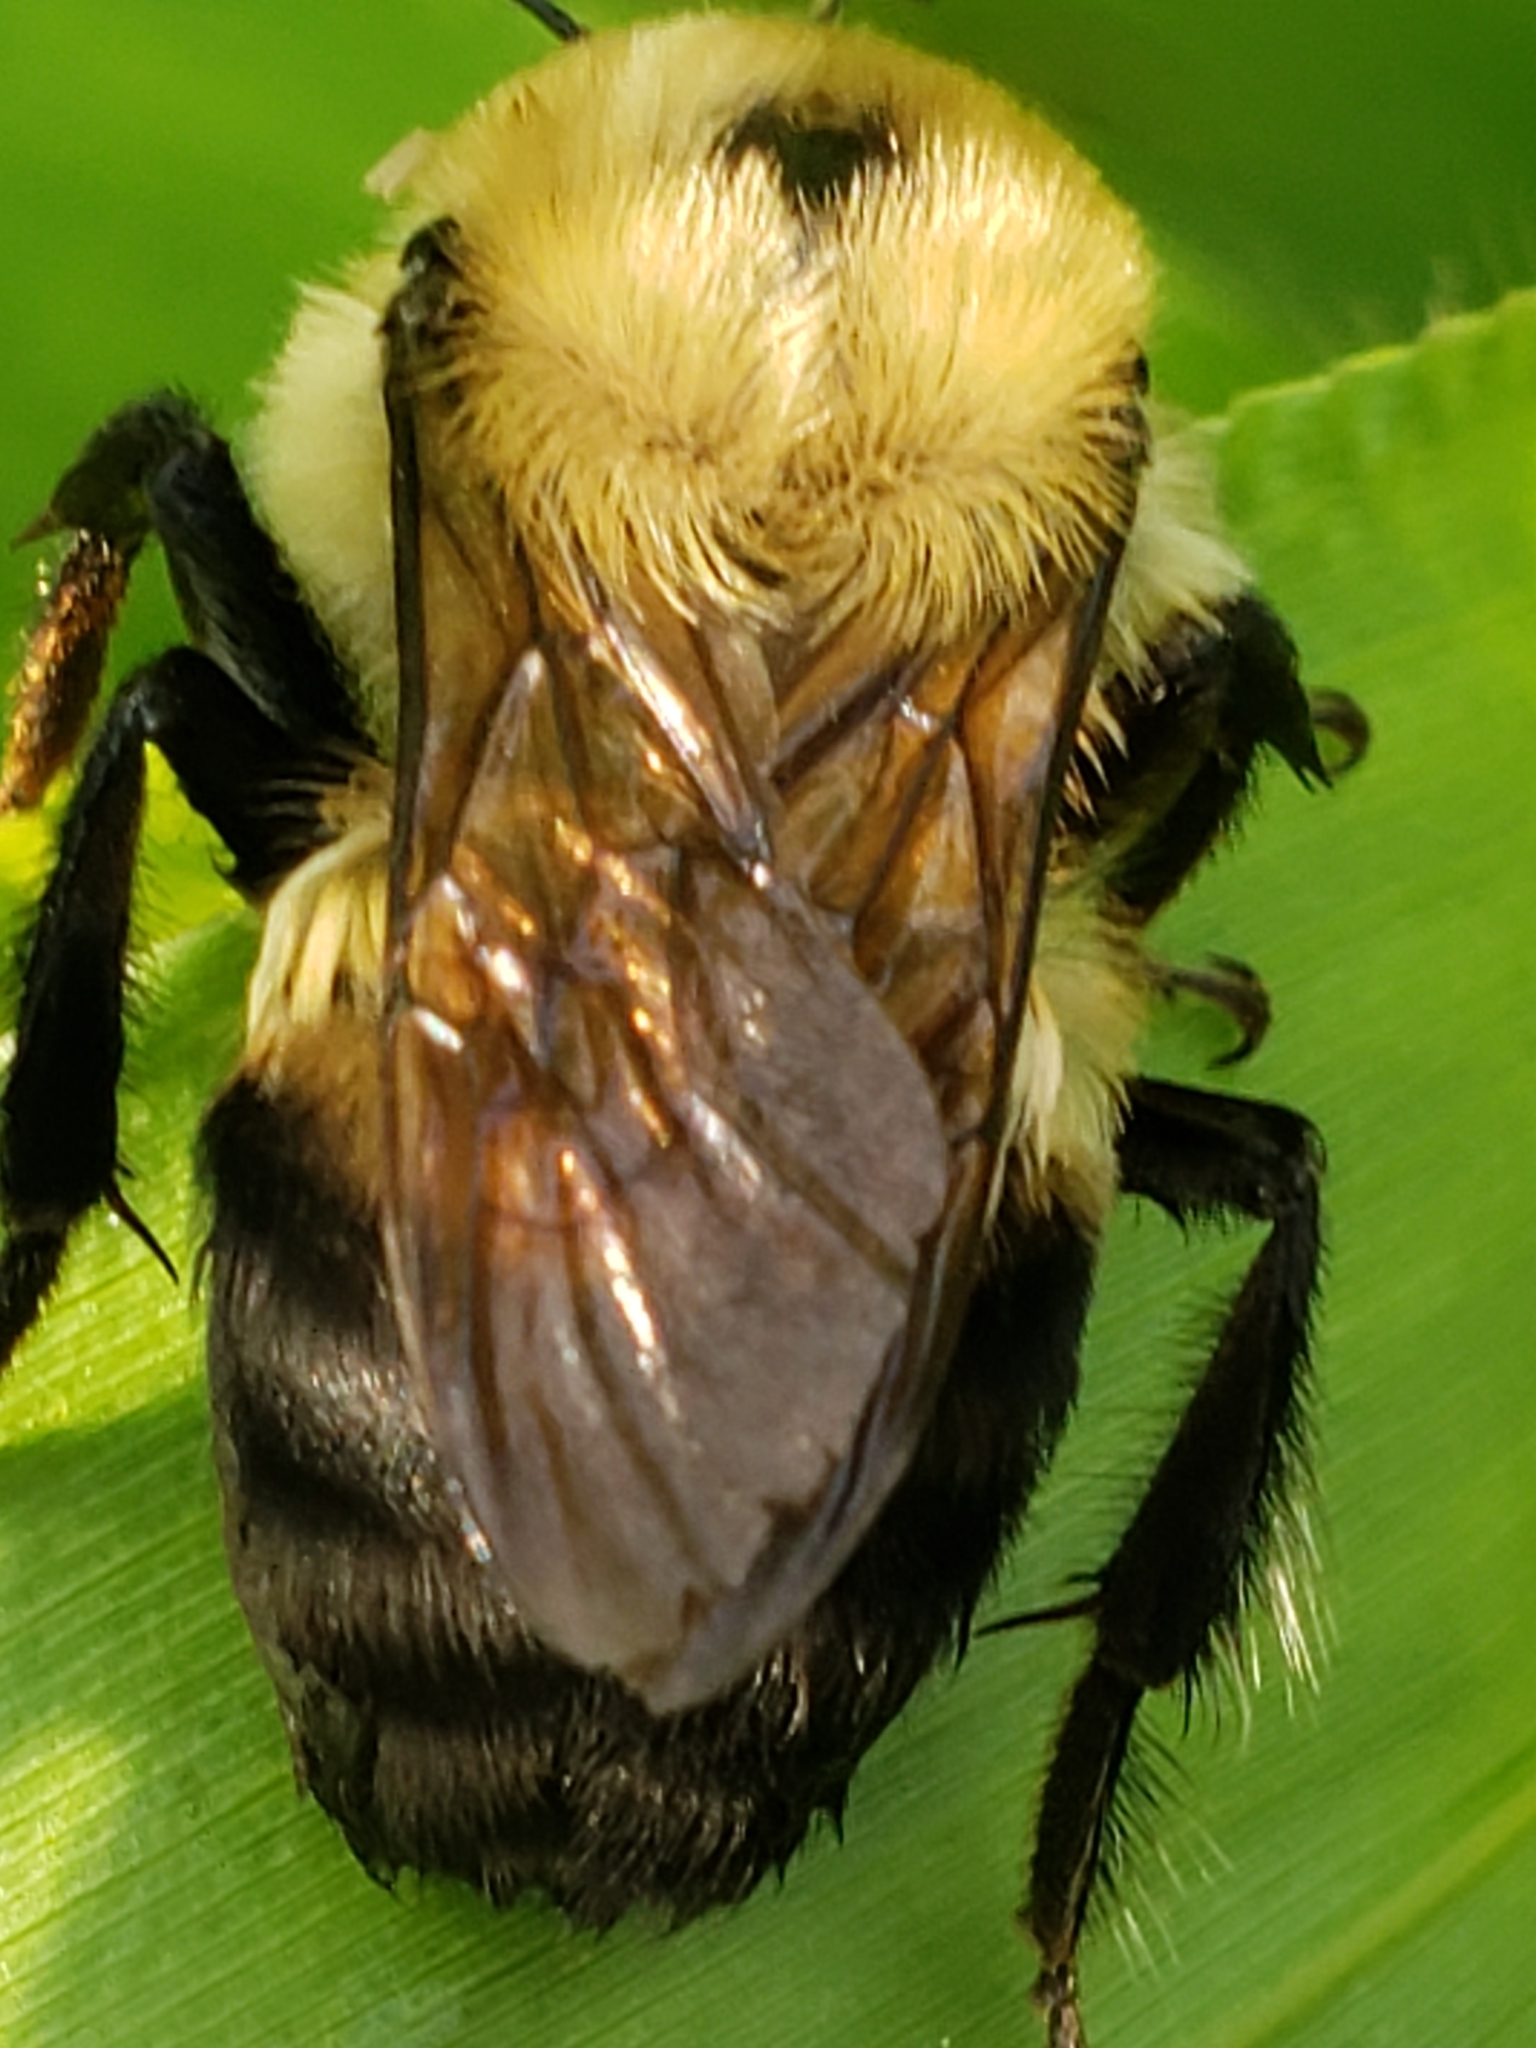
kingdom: Animalia
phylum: Arthropoda
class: Insecta
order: Hymenoptera
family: Apidae
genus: Bombus
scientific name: Bombus griseocollis
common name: Brown-belted bumble bee
